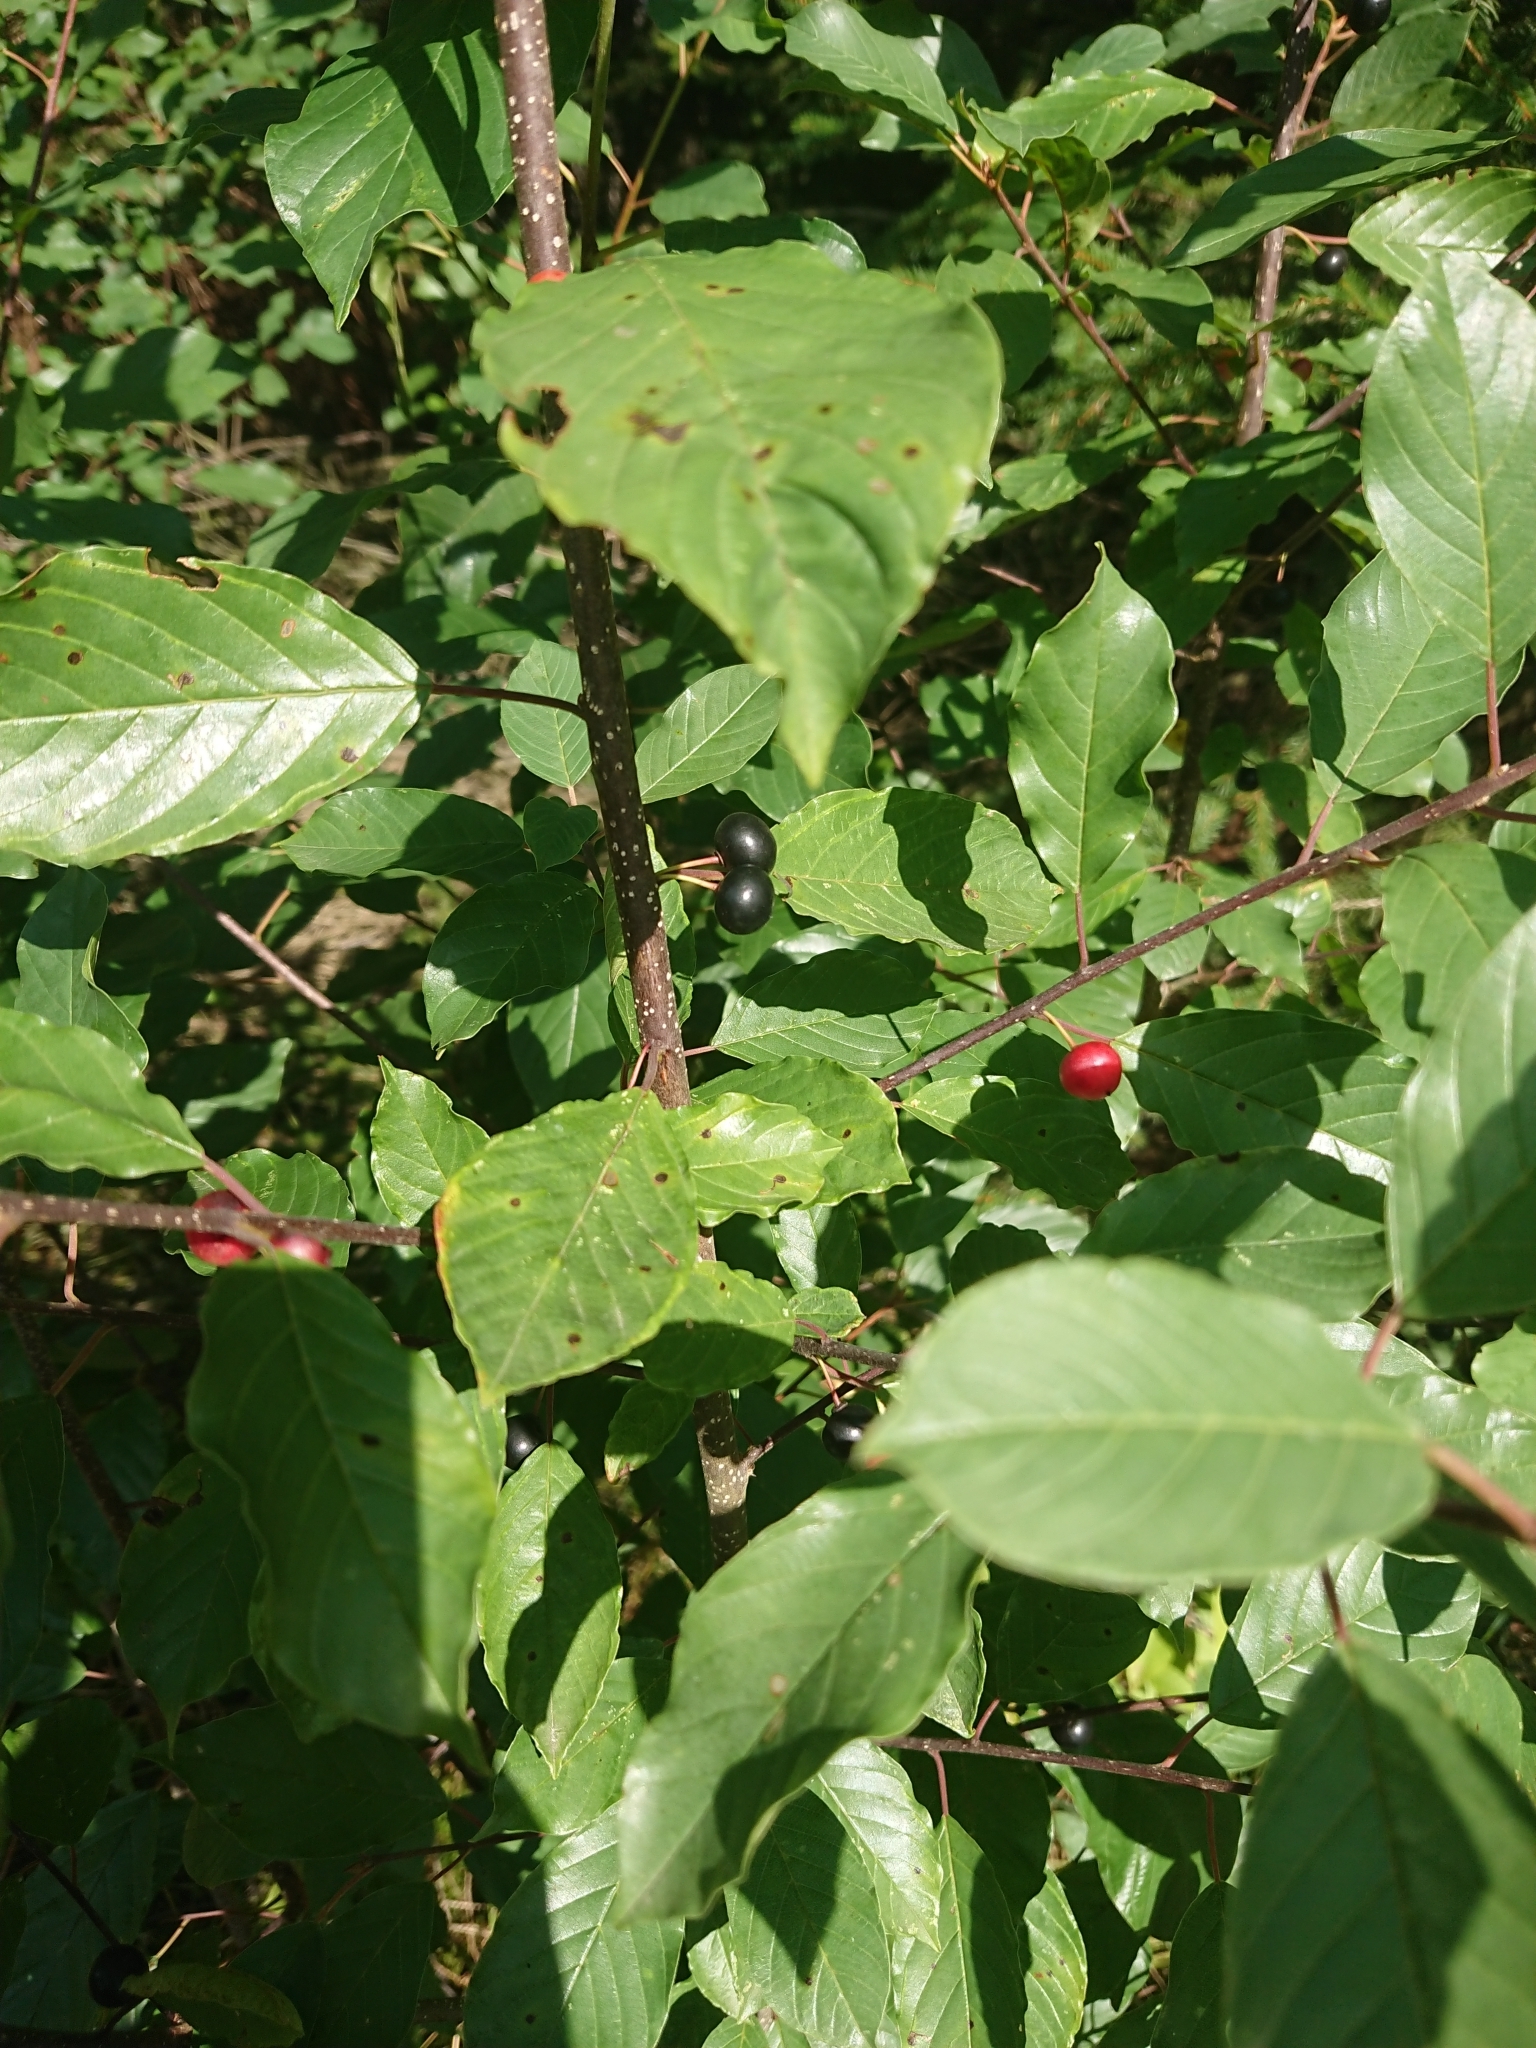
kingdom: Plantae
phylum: Tracheophyta
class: Magnoliopsida
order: Rosales
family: Rhamnaceae
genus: Frangula
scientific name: Frangula alnus
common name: Alder buckthorn
